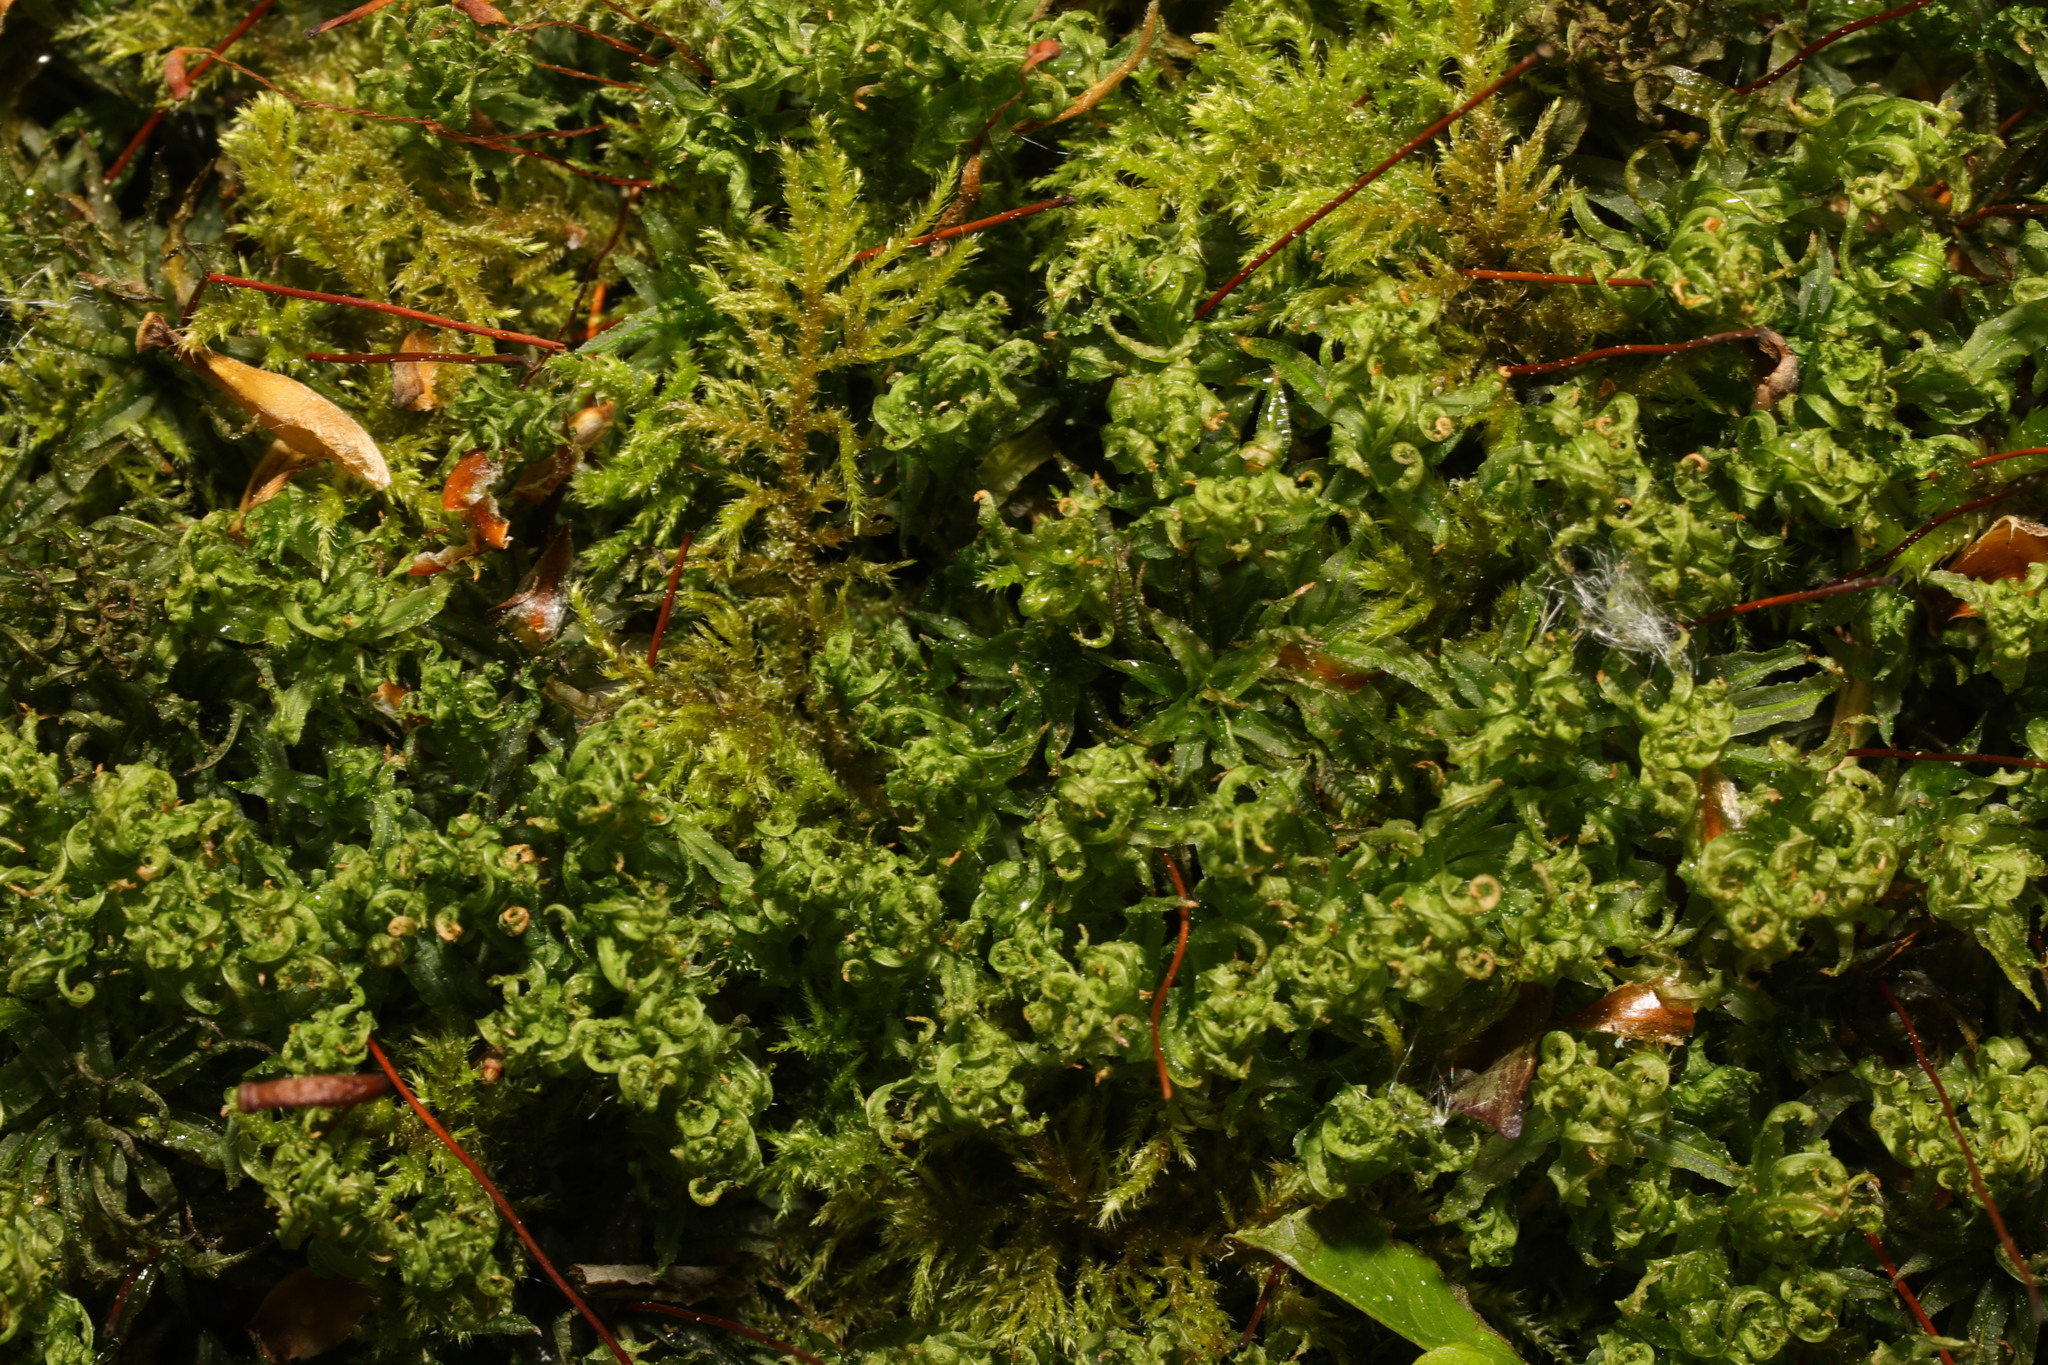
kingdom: Plantae
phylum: Bryophyta
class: Bryopsida
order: Bryales
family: Mniaceae
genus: Plagiomnium
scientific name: Plagiomnium undulatum
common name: Hart's-tongue thyme-moss
